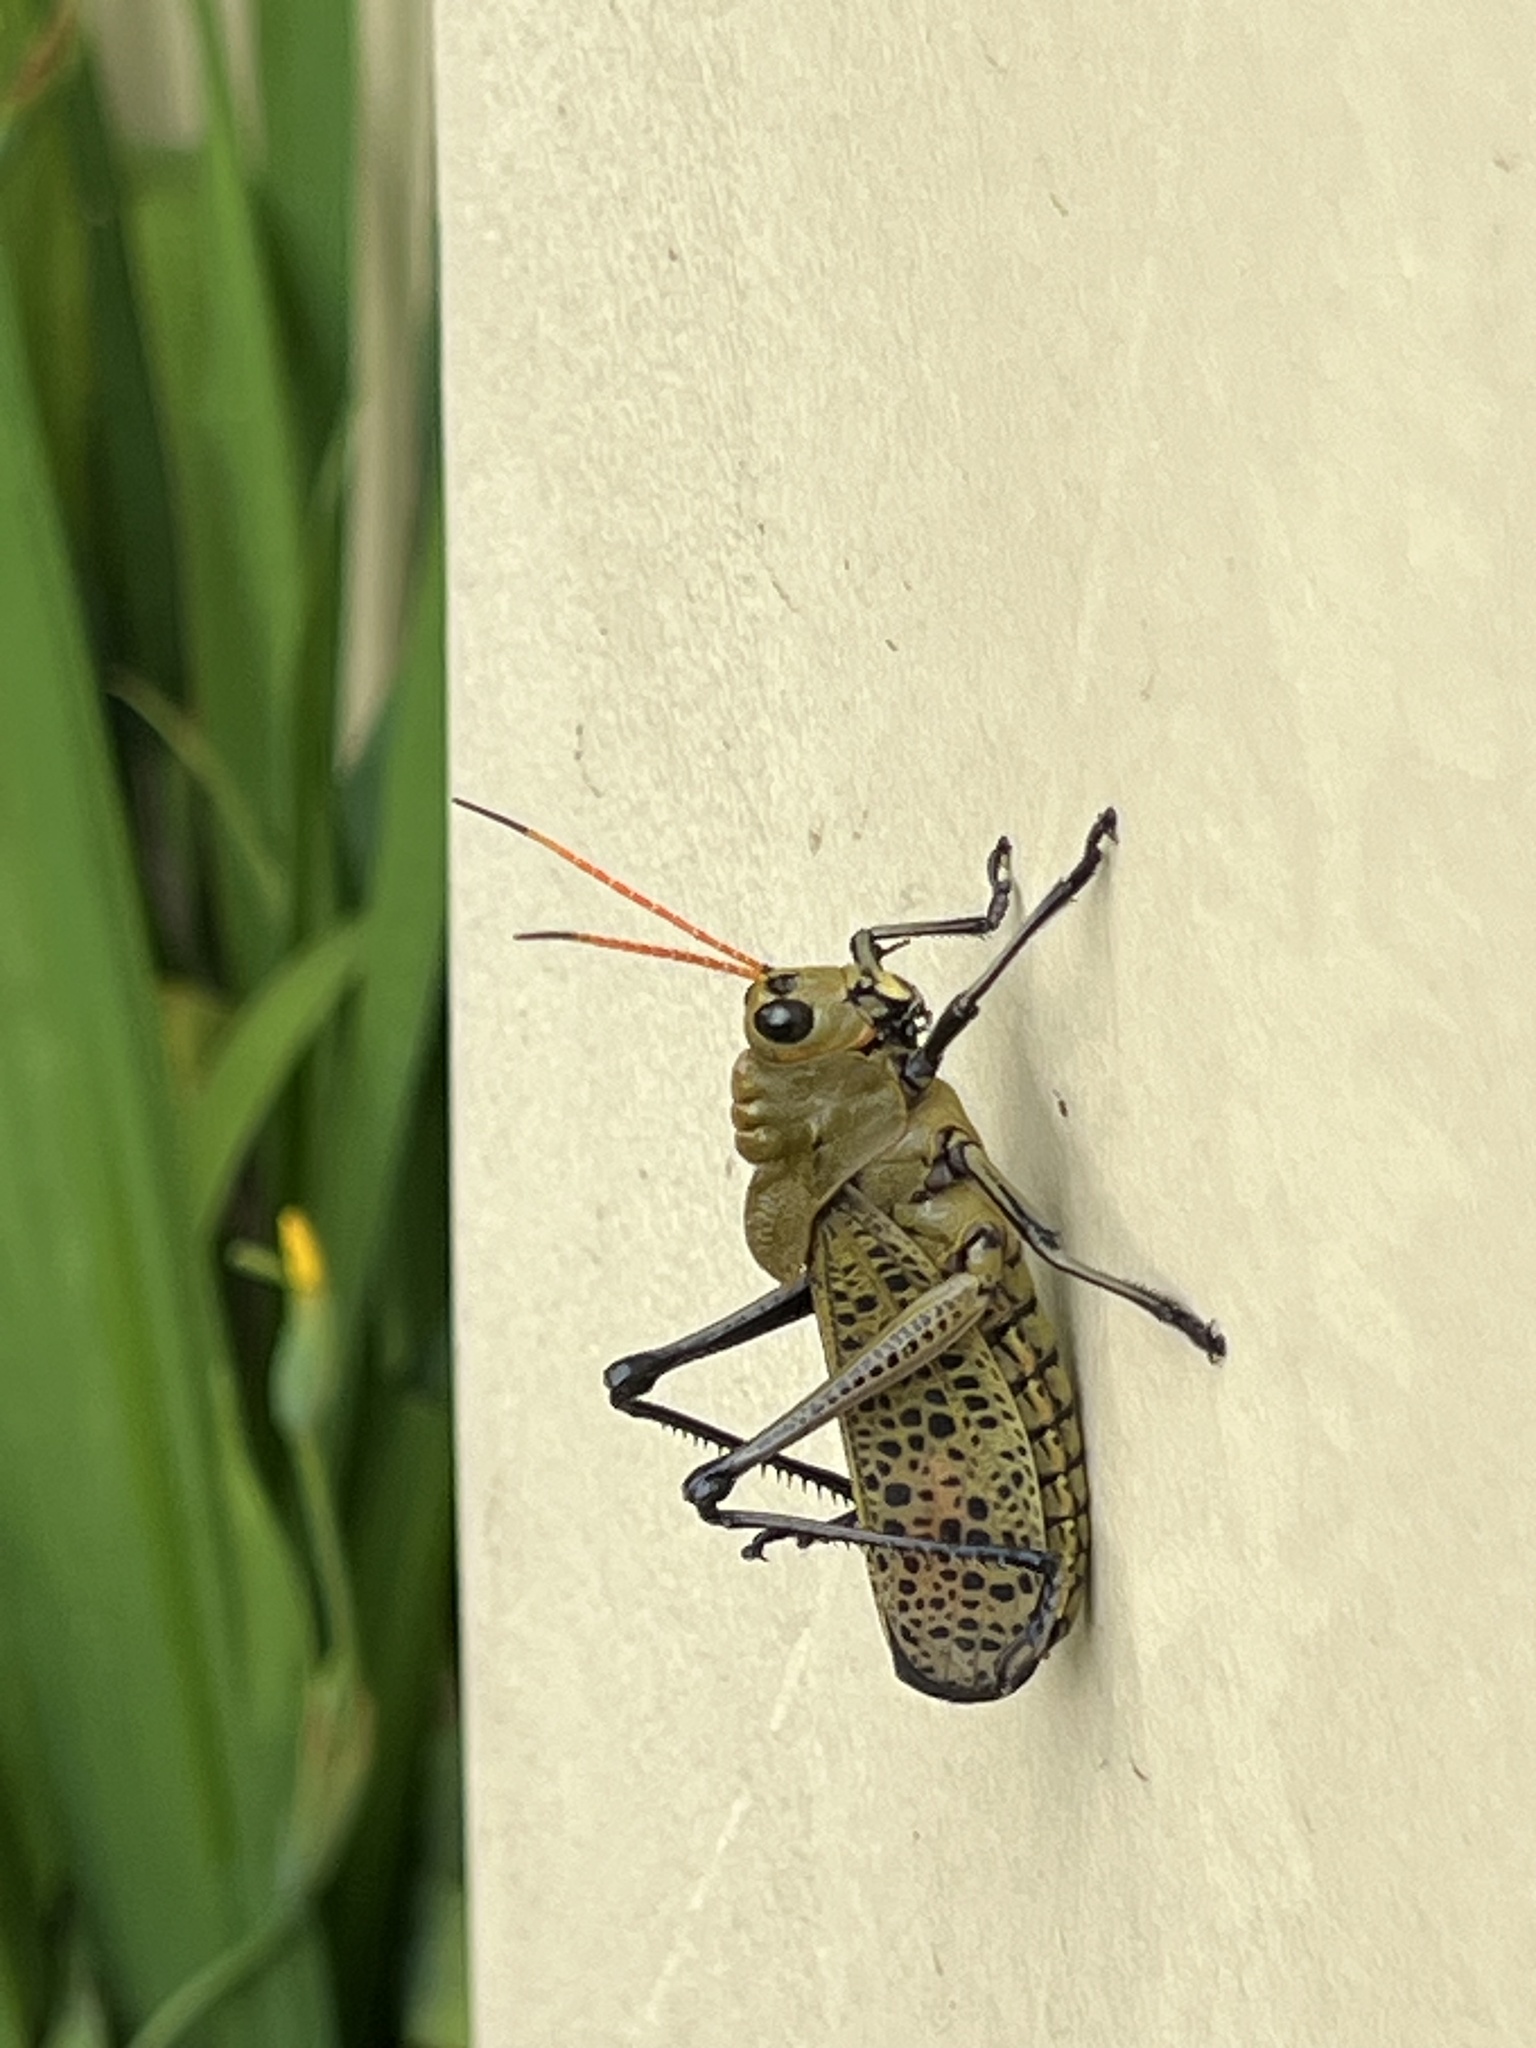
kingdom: Animalia
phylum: Arthropoda
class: Insecta
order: Orthoptera
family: Romaleidae
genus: Romalea
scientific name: Romalea
